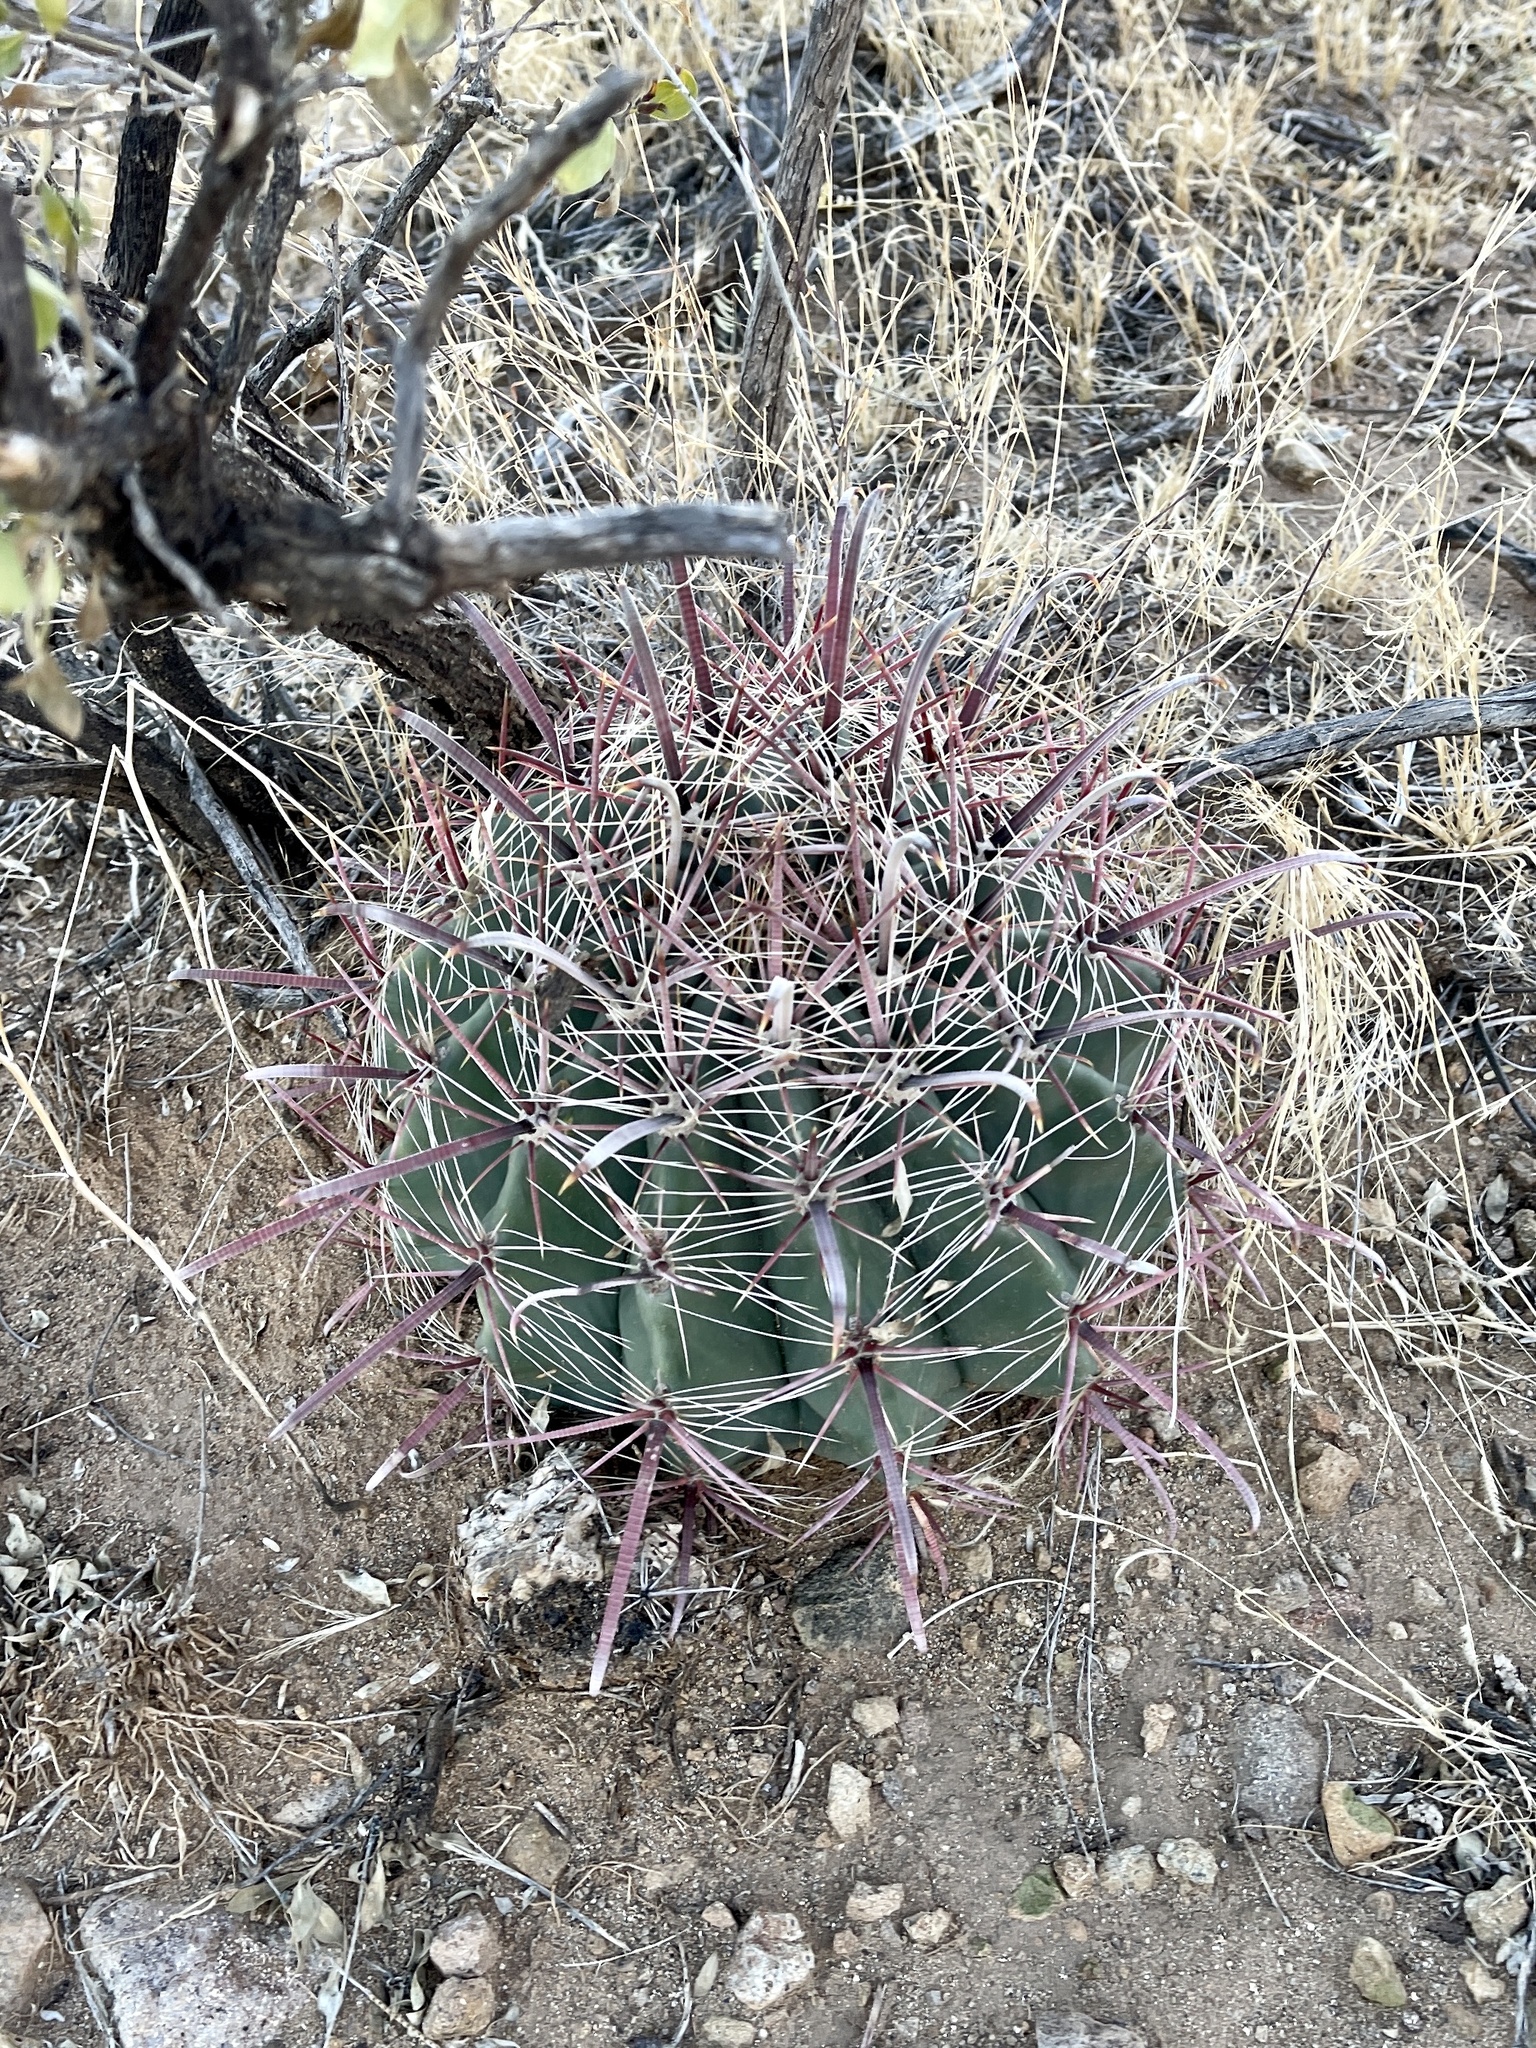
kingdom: Plantae
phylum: Tracheophyta
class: Magnoliopsida
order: Caryophyllales
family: Cactaceae
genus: Ferocactus
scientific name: Ferocactus wislizeni
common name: Candy barrel cactus
